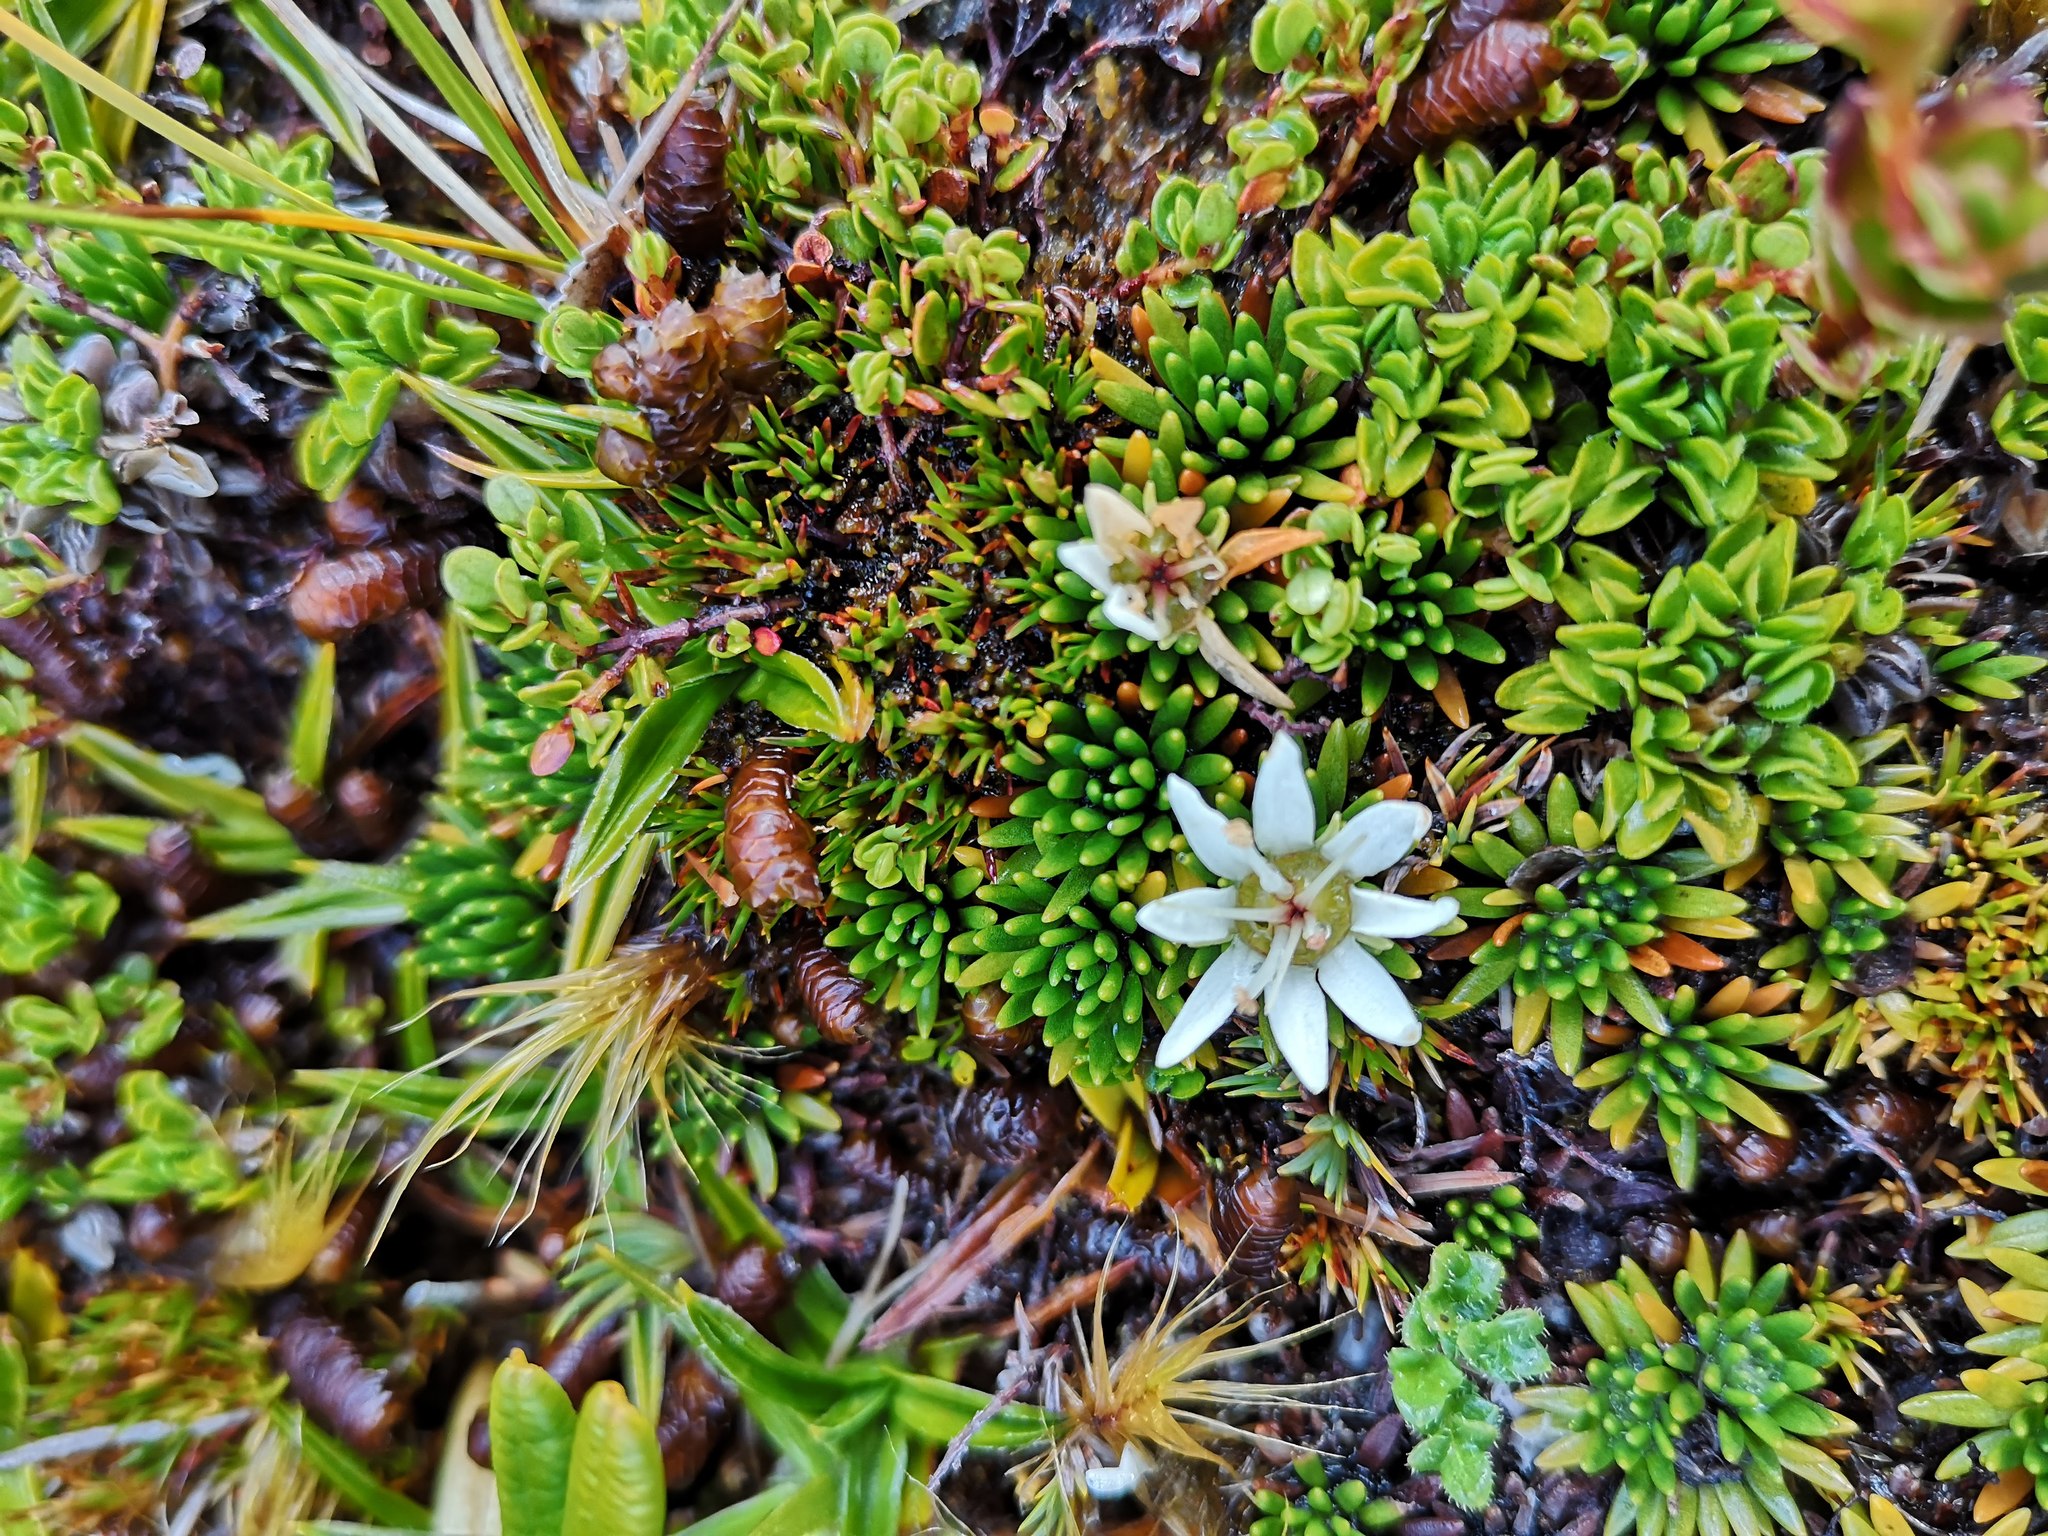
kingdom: Plantae
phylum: Tracheophyta
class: Magnoliopsida
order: Asterales
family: Stylidiaceae
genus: Donatia
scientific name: Donatia fascicularis
